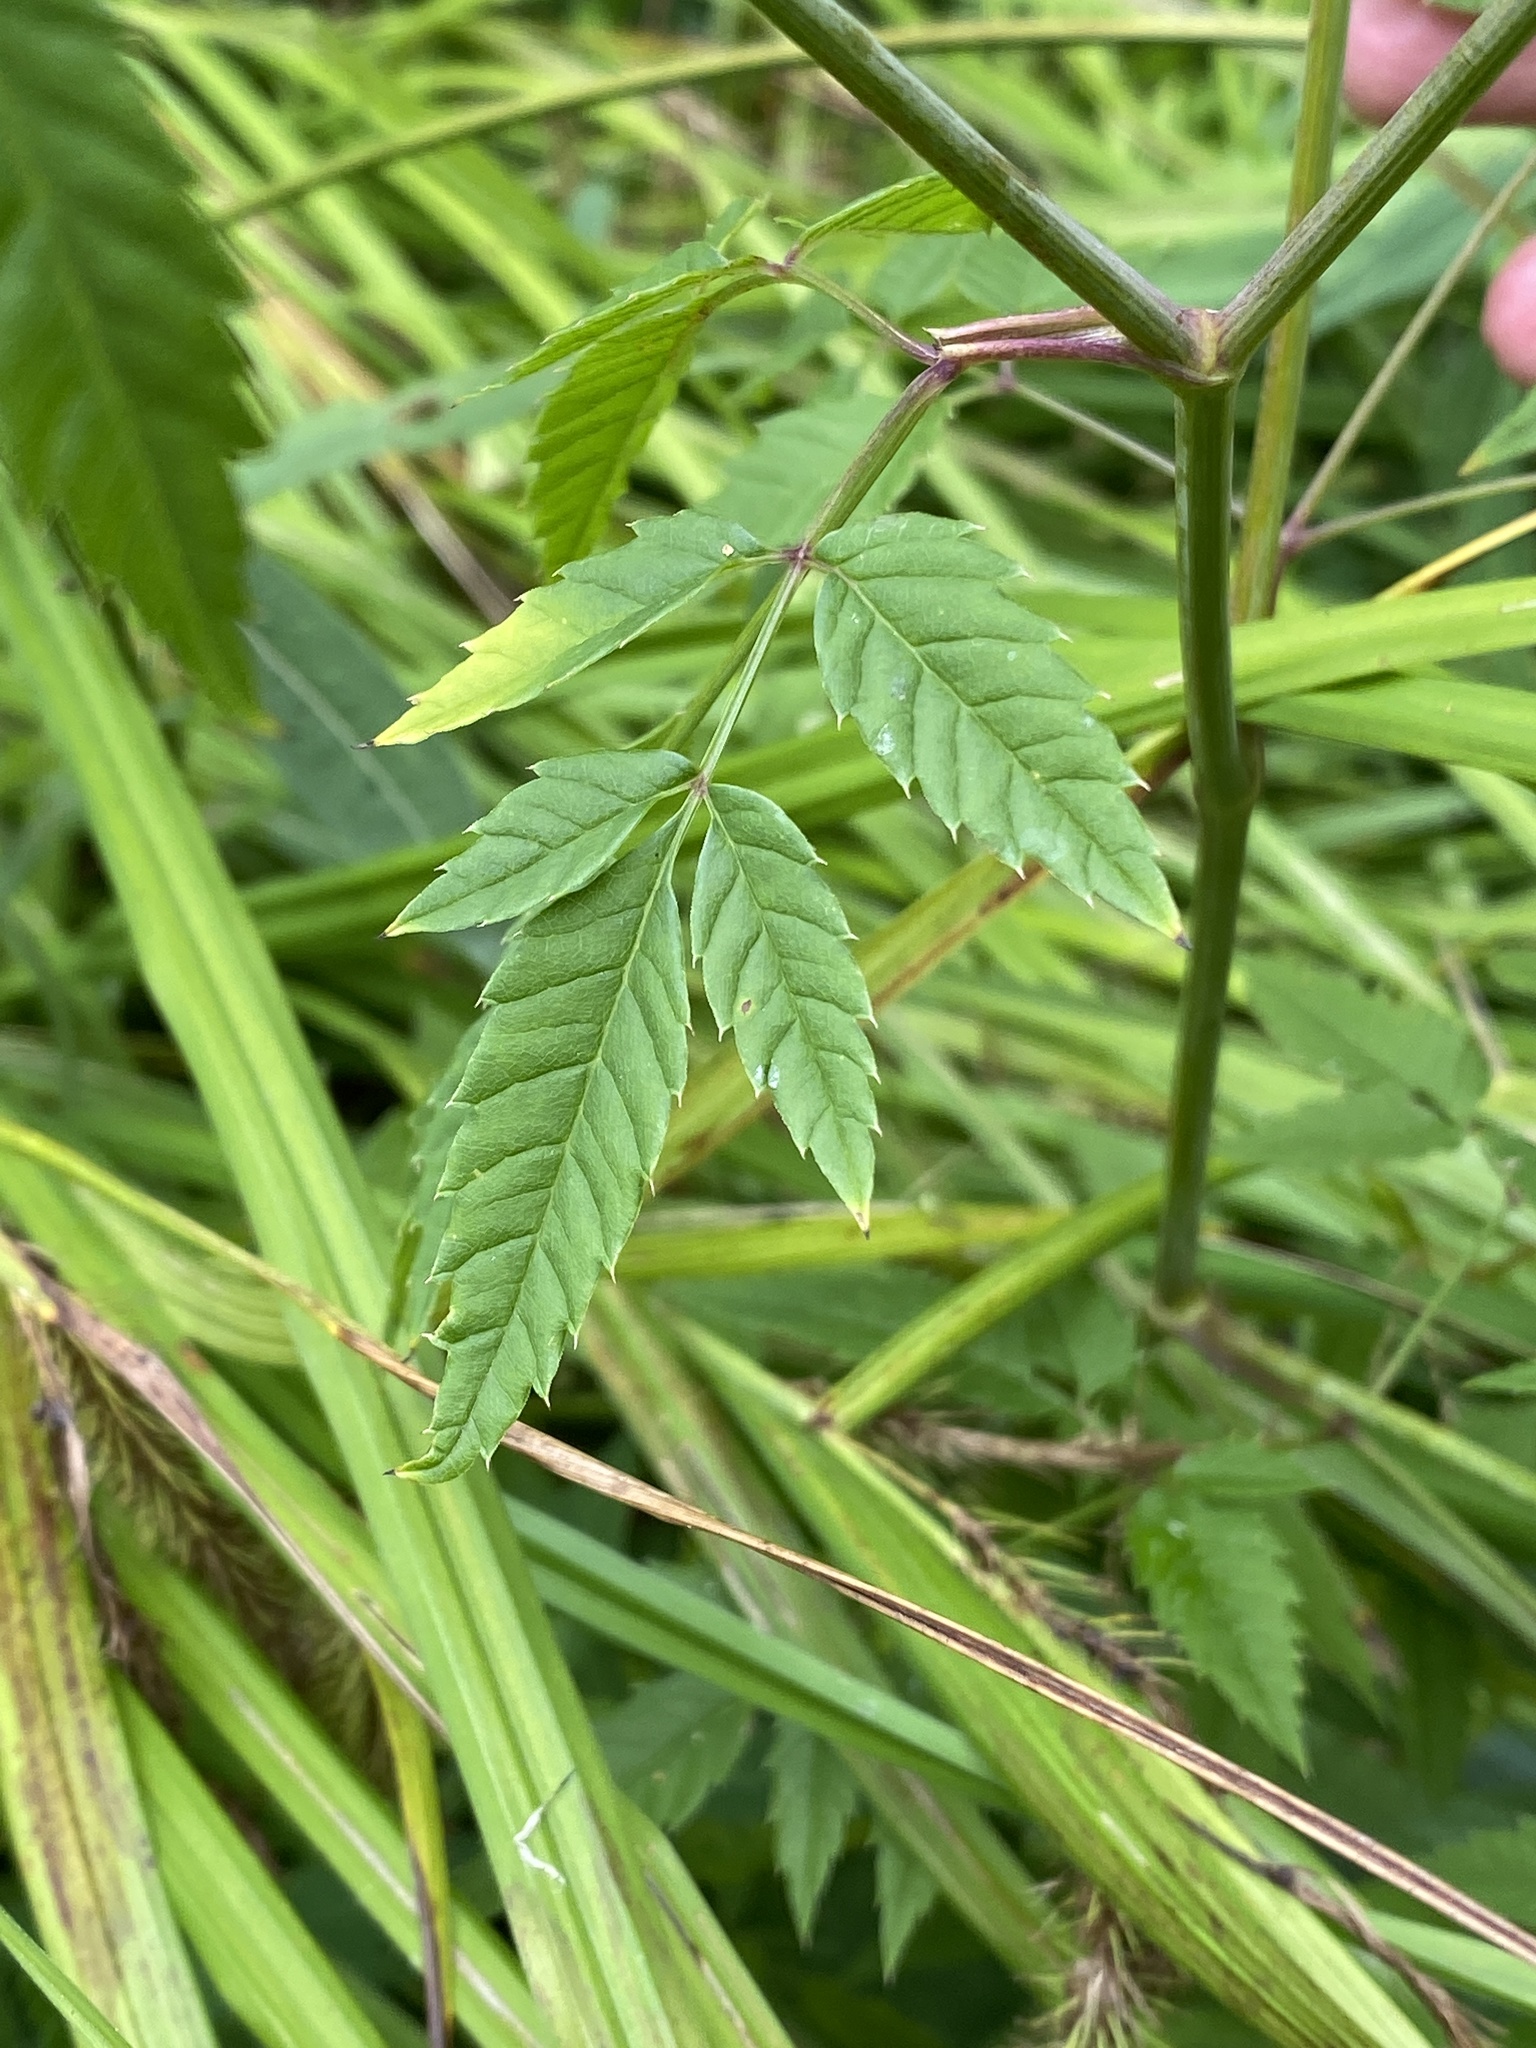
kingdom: Plantae
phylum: Tracheophyta
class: Magnoliopsida
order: Apiales
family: Apiaceae
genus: Cicuta
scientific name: Cicuta maculata
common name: Spotted cowbane
